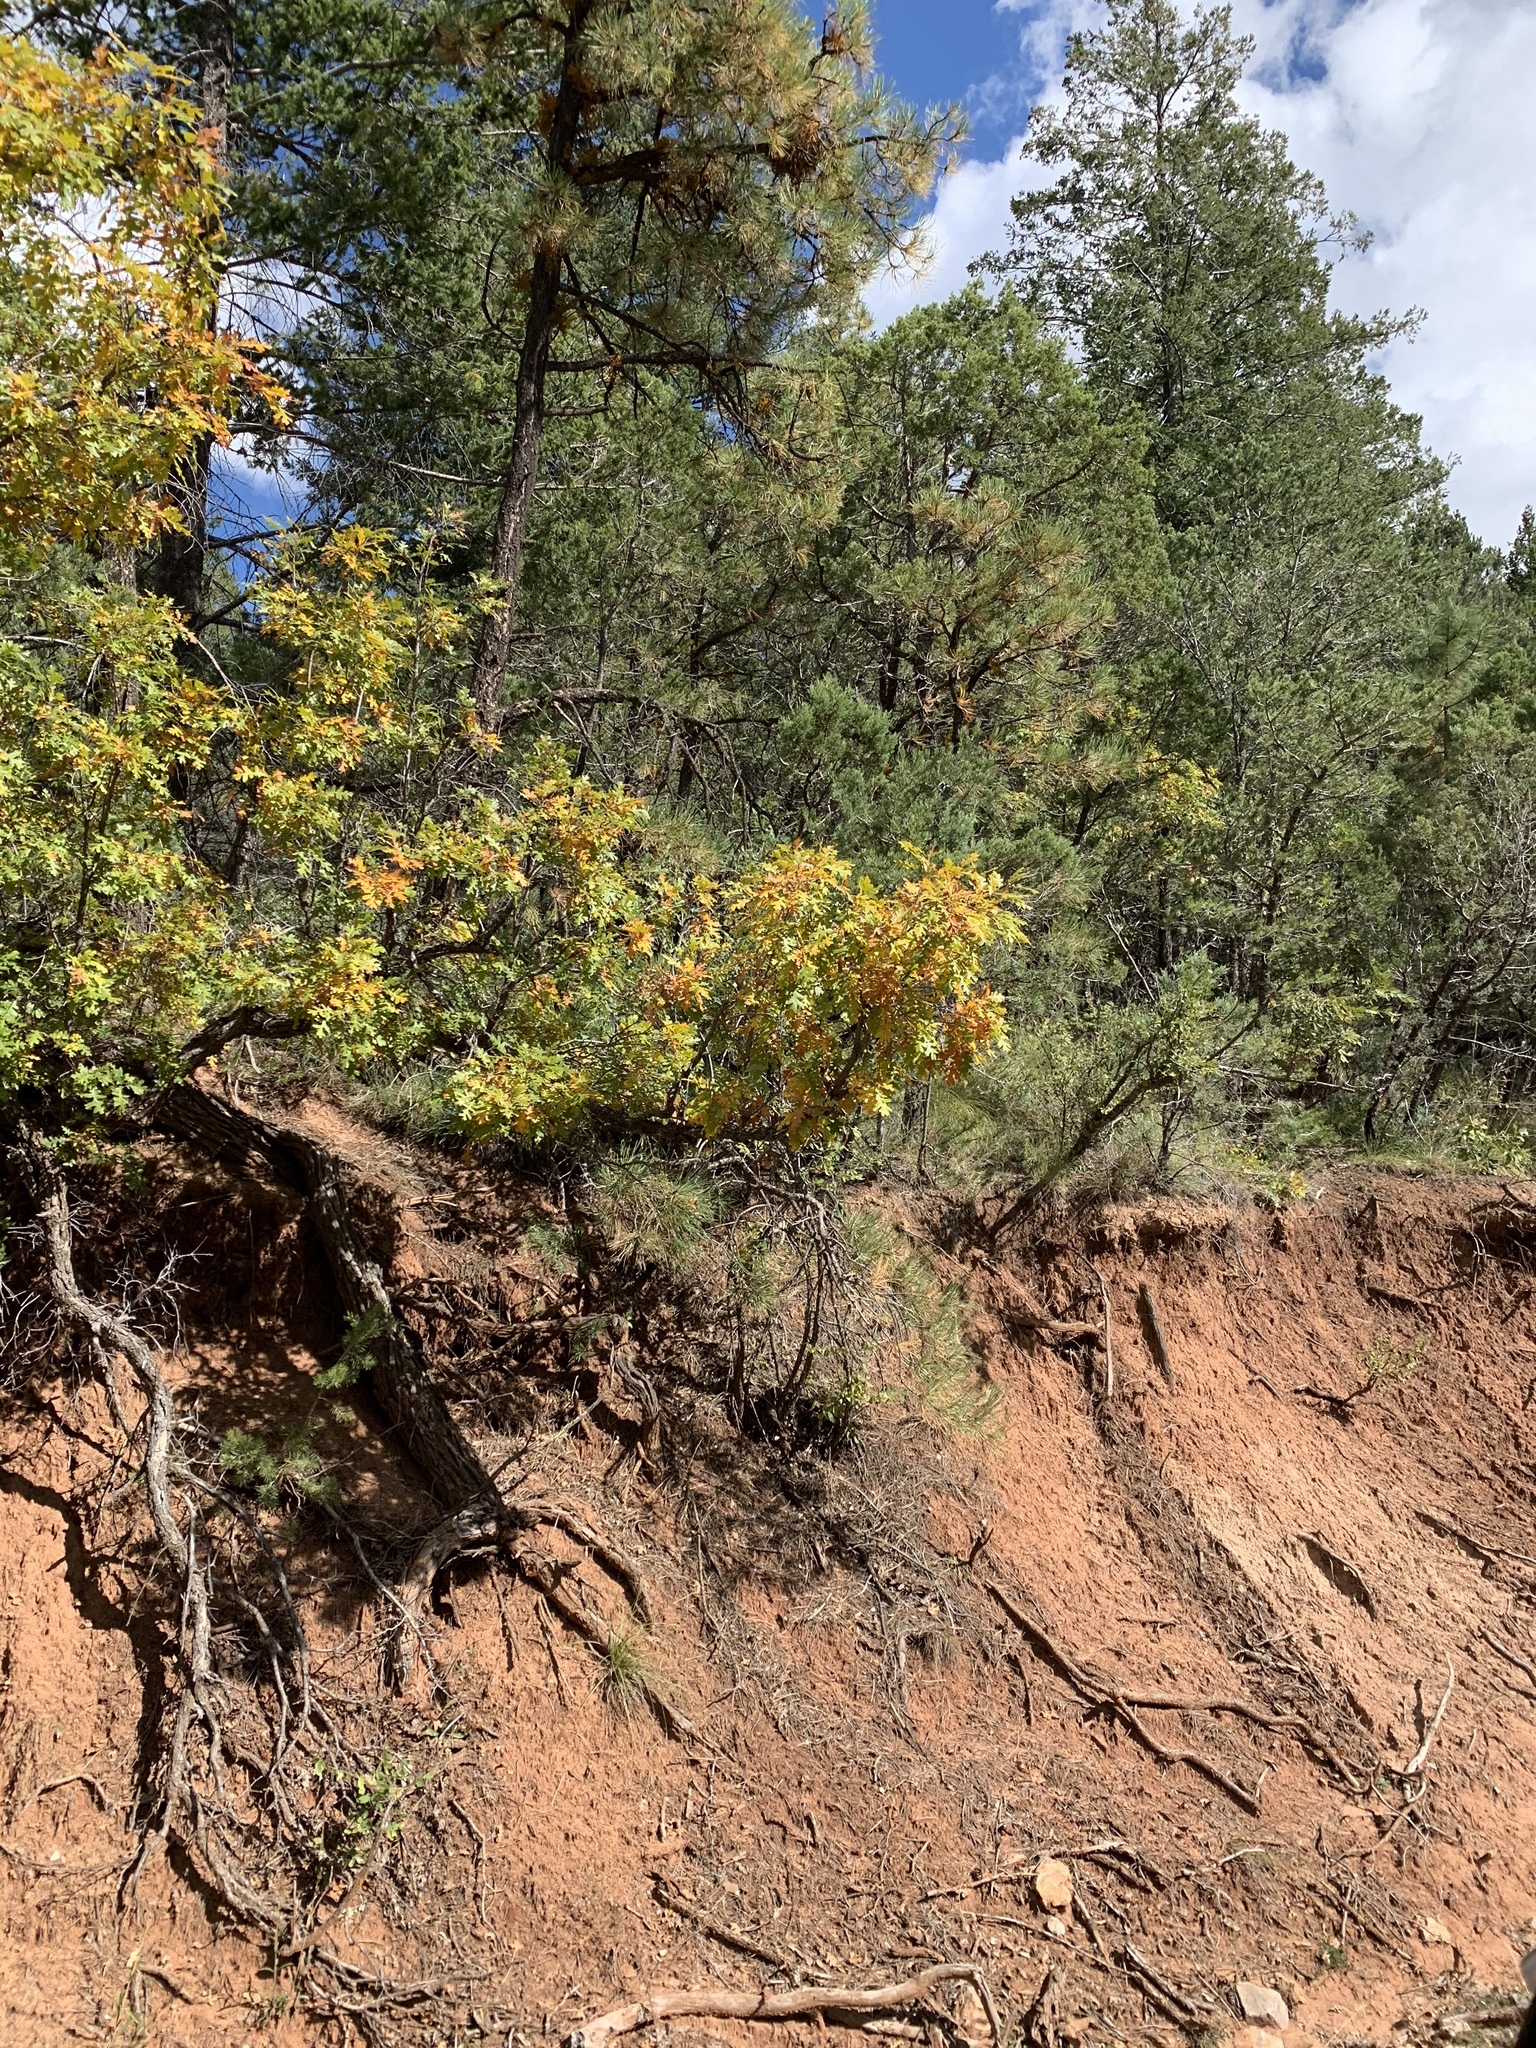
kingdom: Plantae
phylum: Tracheophyta
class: Magnoliopsida
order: Fagales
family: Fagaceae
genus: Quercus
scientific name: Quercus gambelii
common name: Gambel oak
